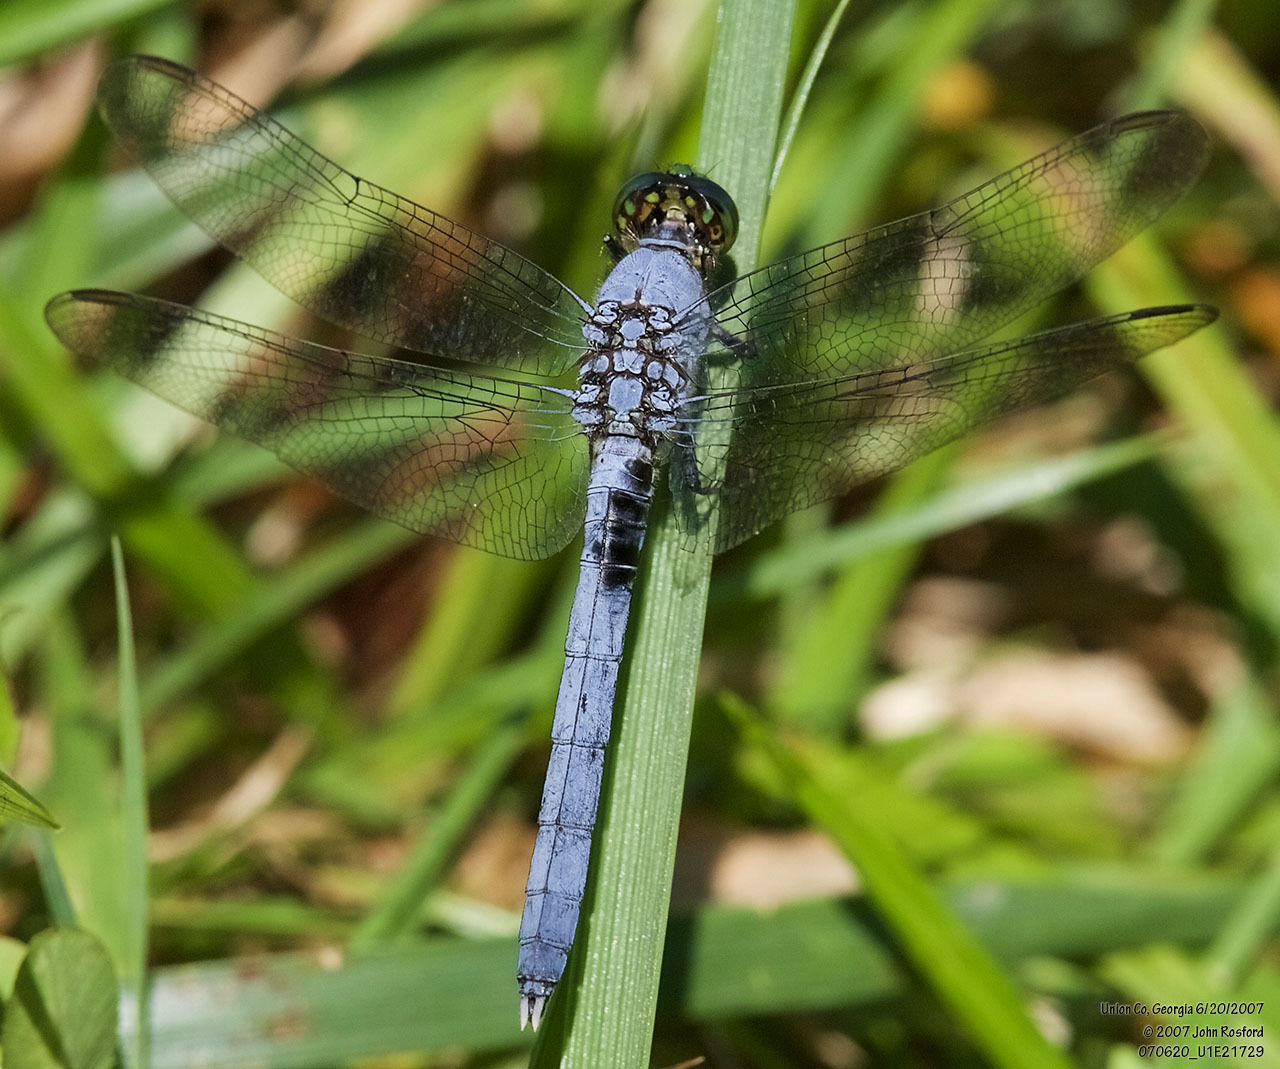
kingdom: Animalia
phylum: Arthropoda
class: Insecta
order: Odonata
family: Libellulidae
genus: Erythemis
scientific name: Erythemis simplicicollis
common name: Eastern pondhawk
